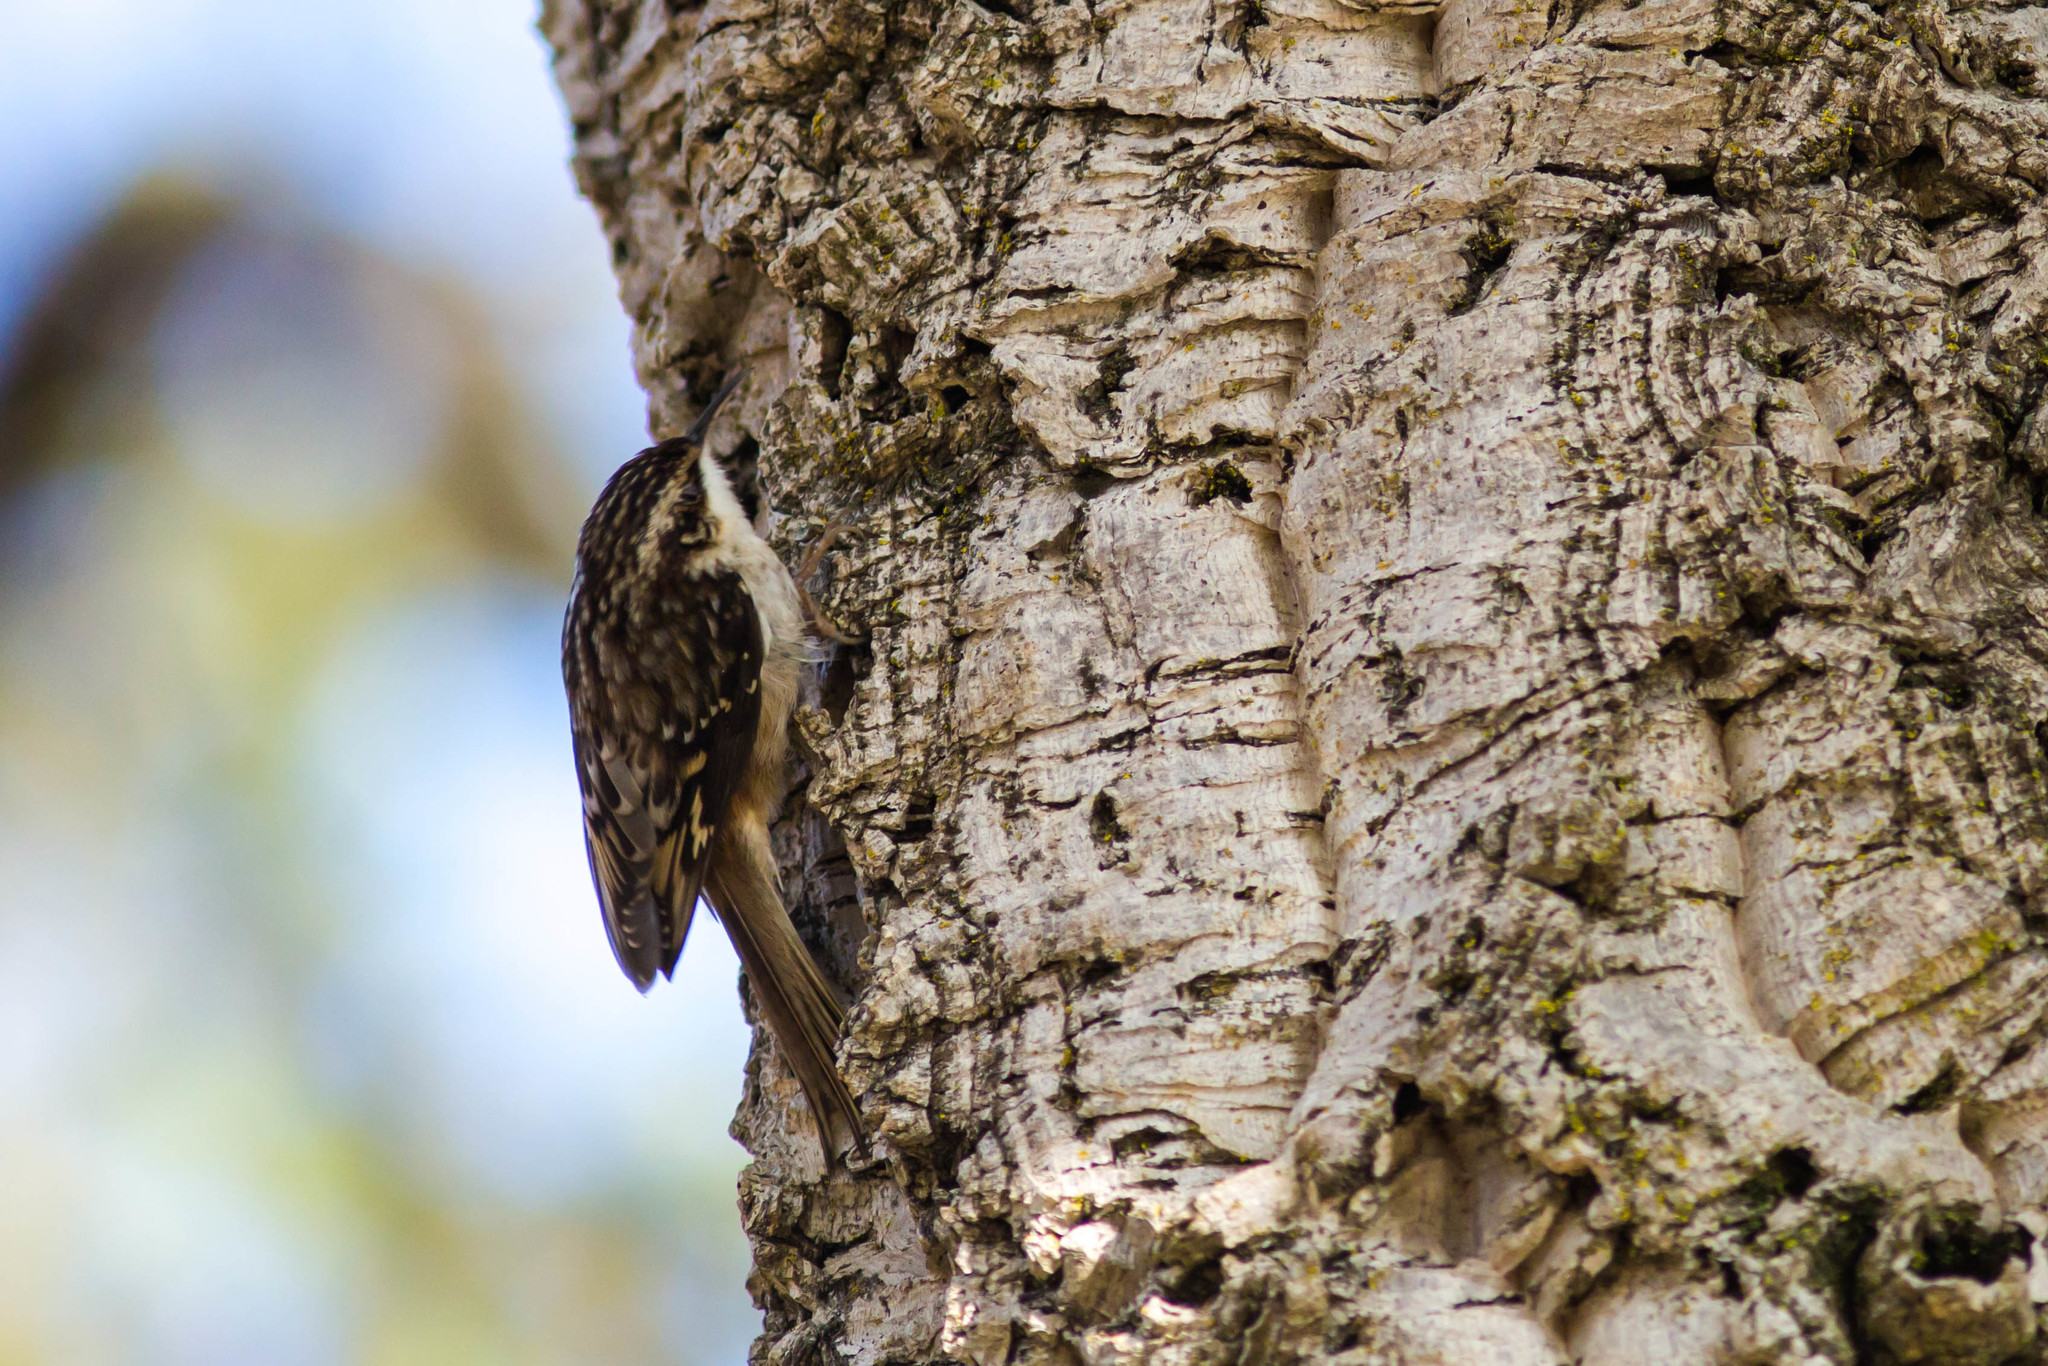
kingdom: Animalia
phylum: Chordata
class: Aves
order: Passeriformes
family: Certhiidae
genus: Certhia
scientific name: Certhia americana
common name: Brown creeper
